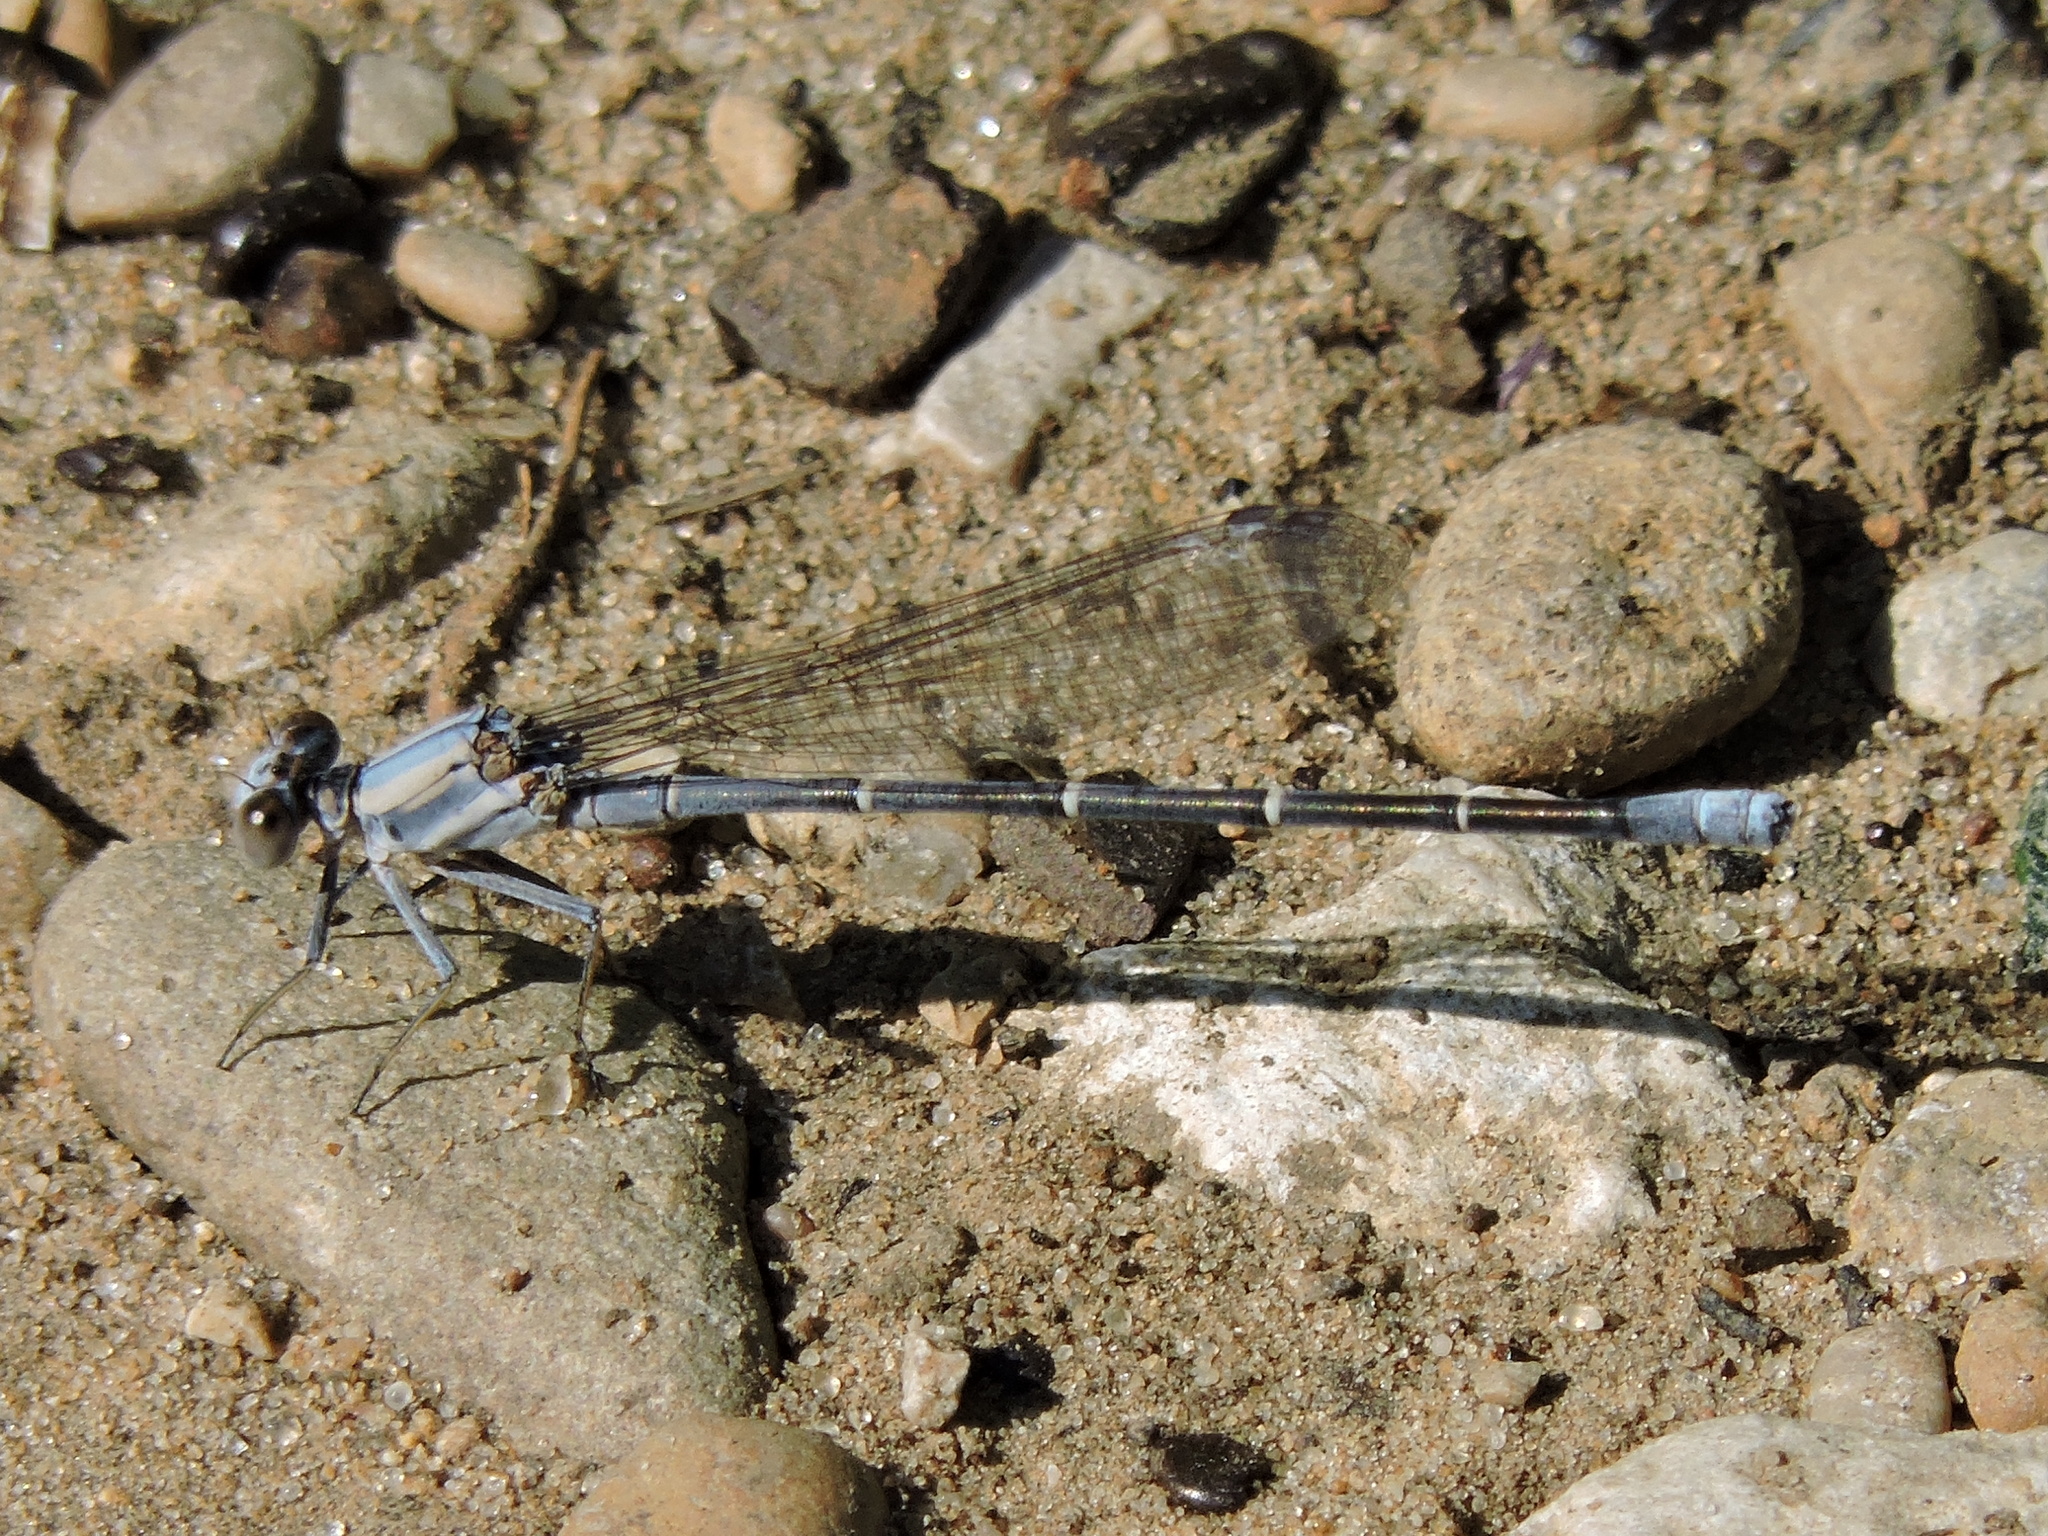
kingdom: Animalia
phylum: Arthropoda
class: Insecta
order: Odonata
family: Coenagrionidae
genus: Argia
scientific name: Argia moesta
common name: Powdered dancer
